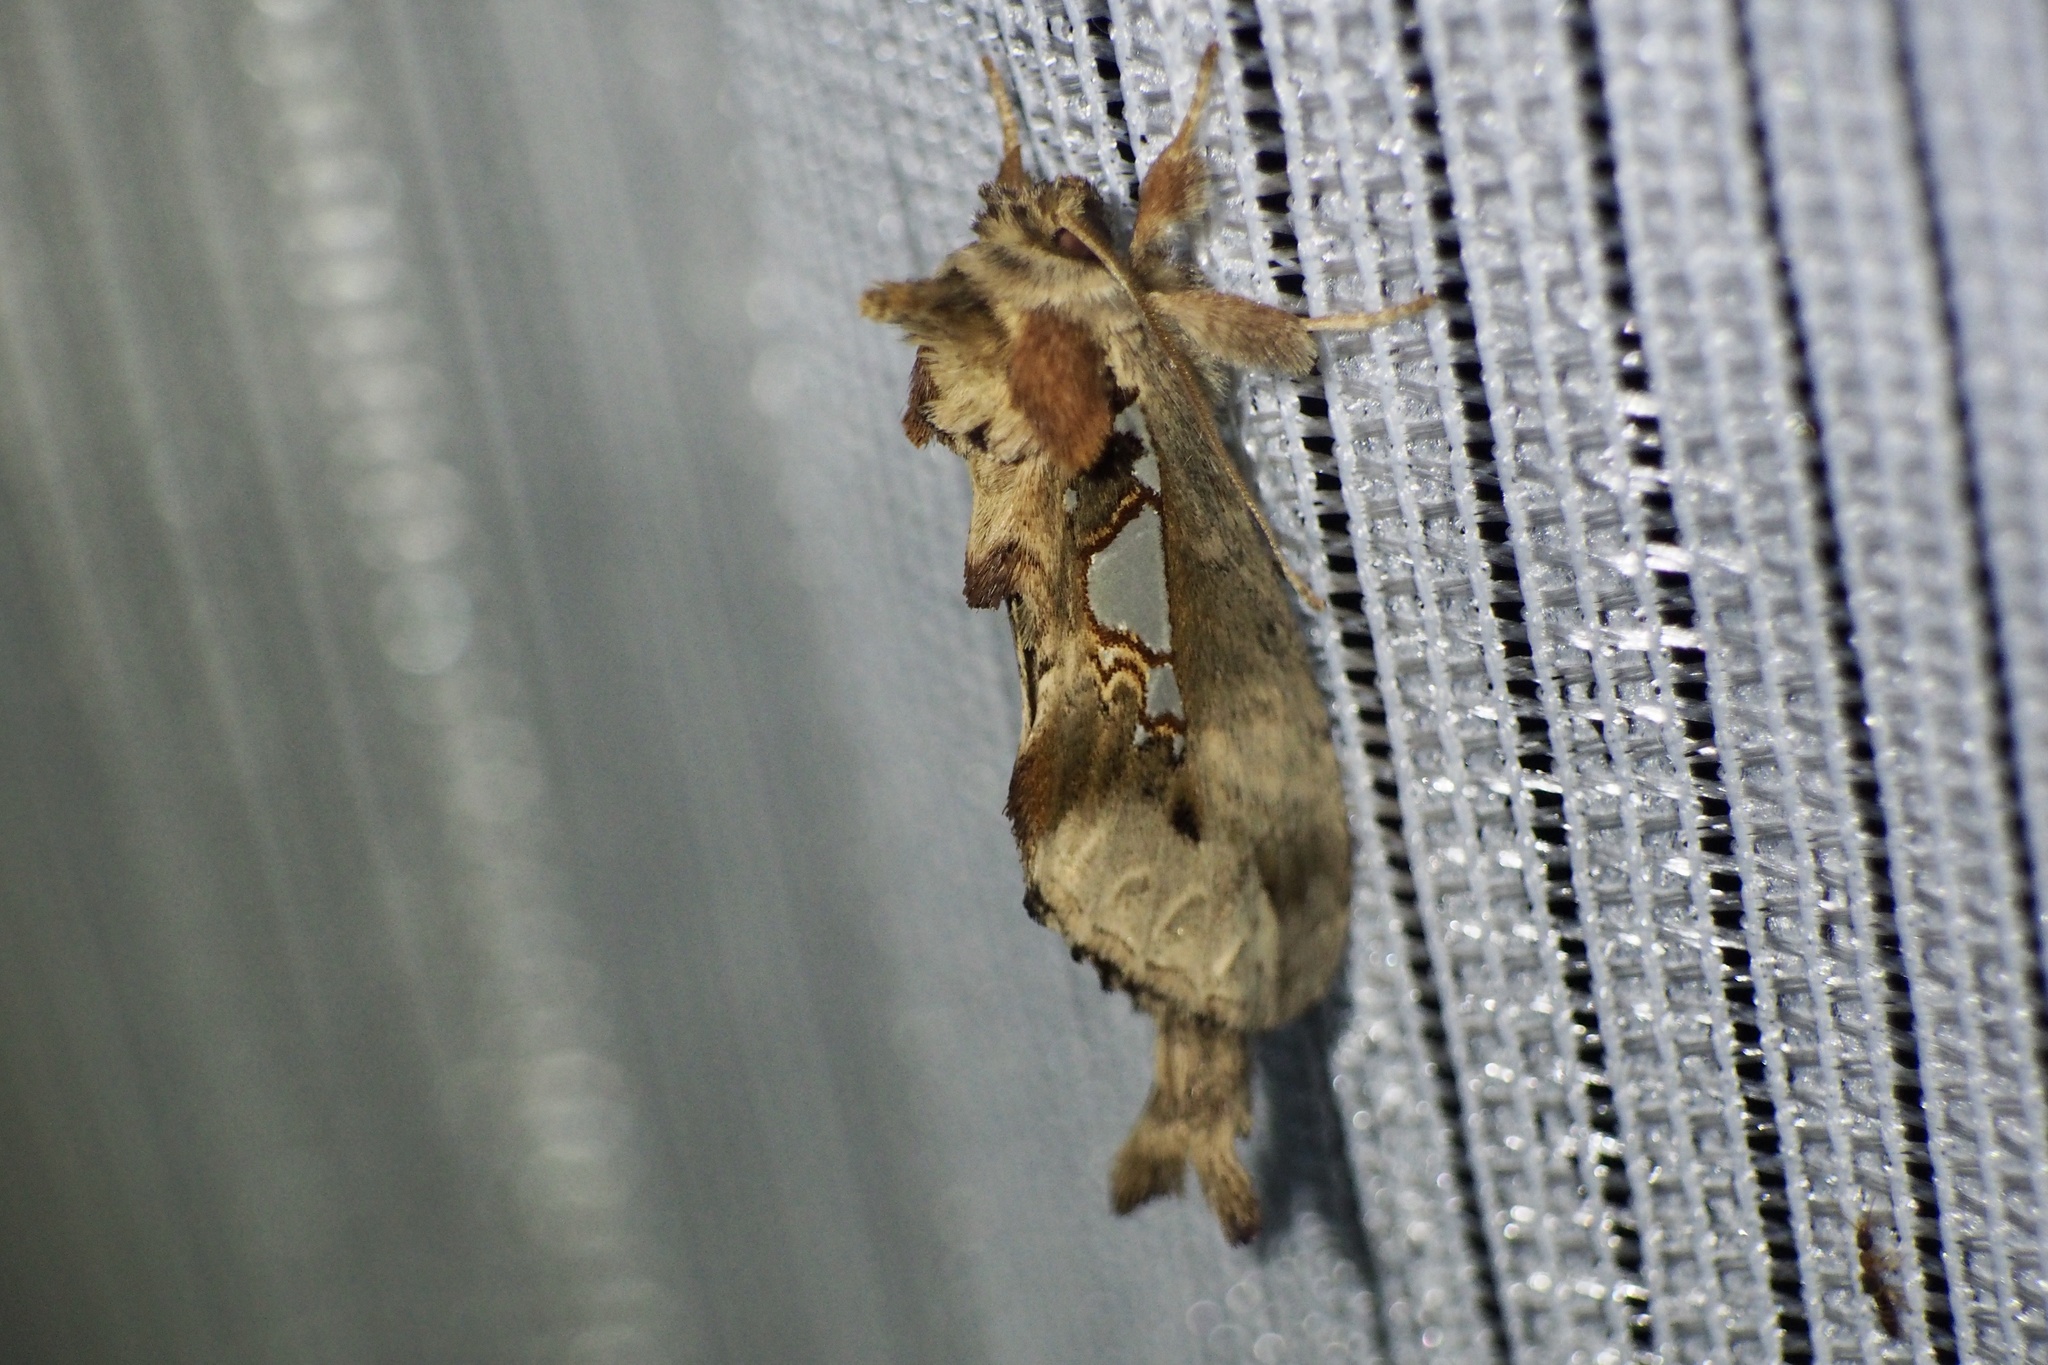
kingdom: Animalia
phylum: Arthropoda
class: Insecta
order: Lepidoptera
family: Notodontidae
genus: Spatalia
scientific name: Spatalia doerriesi
